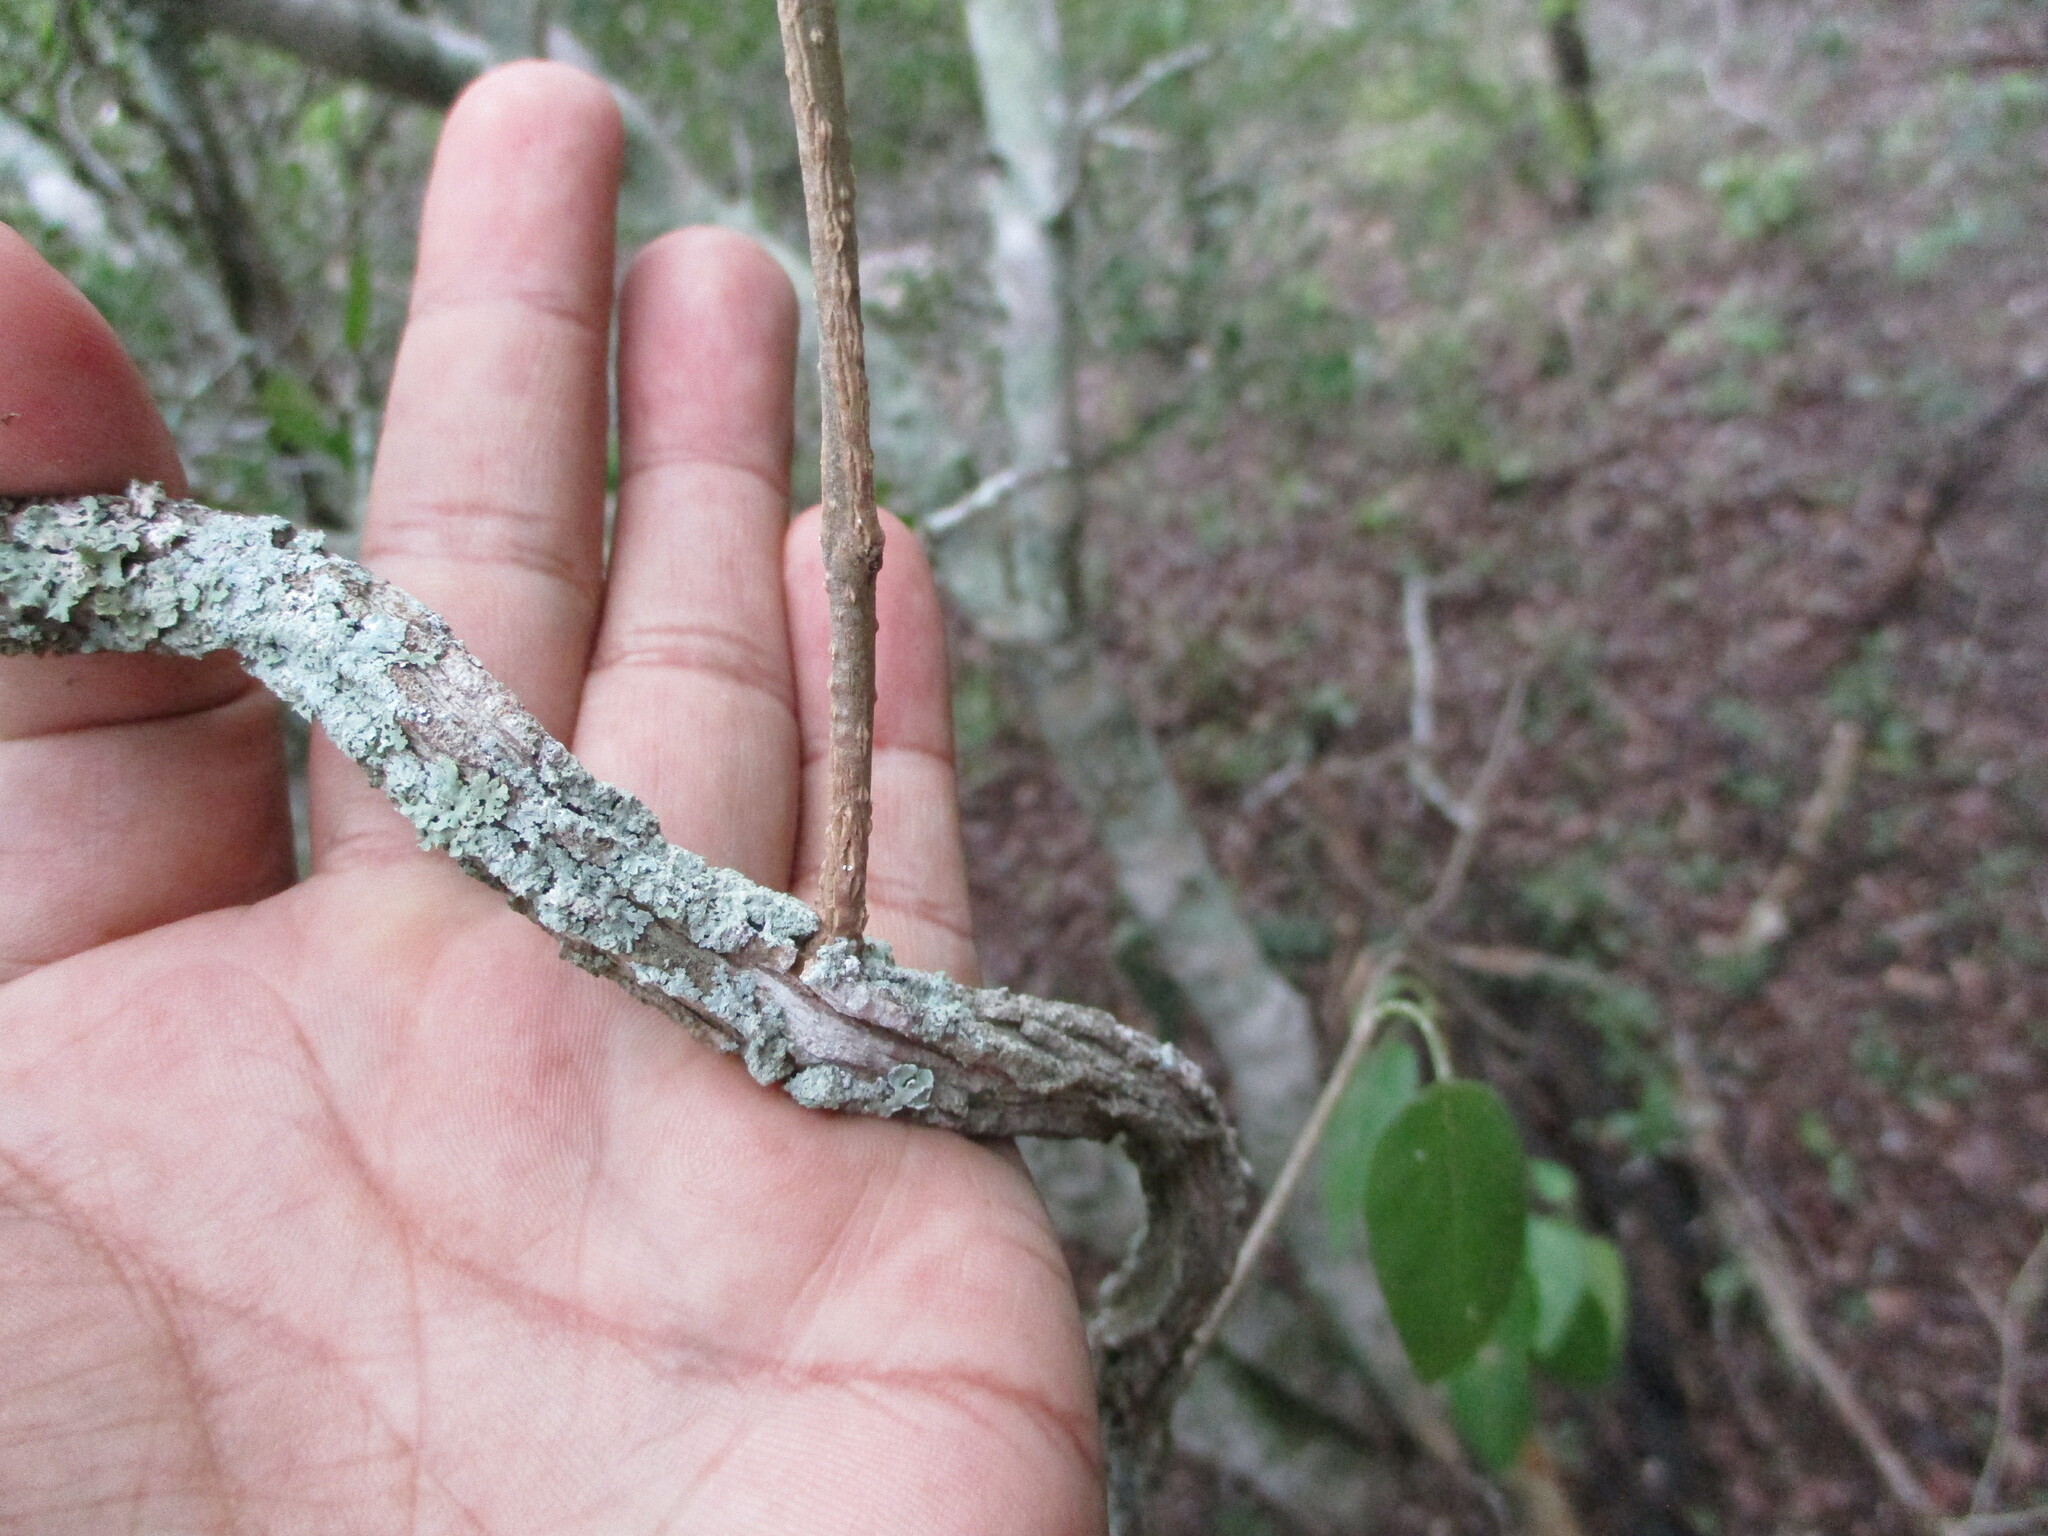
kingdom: Plantae
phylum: Tracheophyta
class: Magnoliopsida
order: Gentianales
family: Apocynaceae
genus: Ruehssia
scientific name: Ruehssia coulteri
